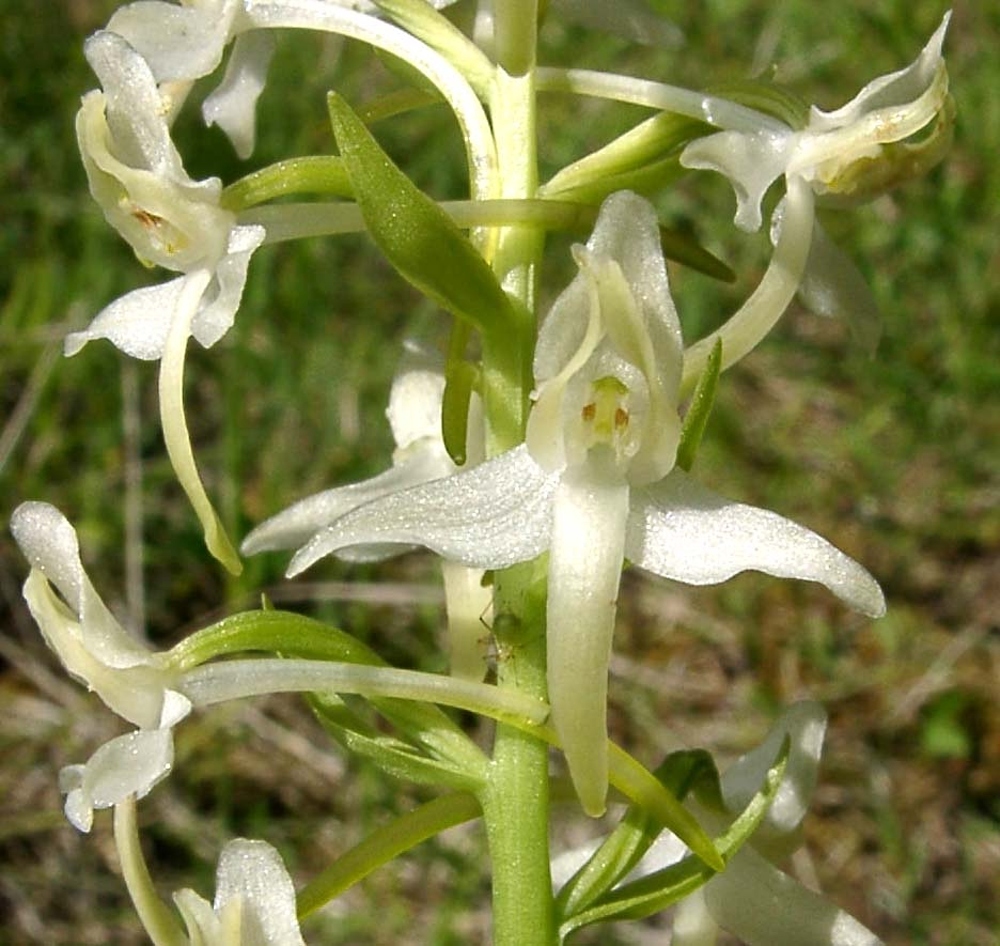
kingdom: Plantae
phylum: Tracheophyta
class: Liliopsida
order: Asparagales
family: Orchidaceae
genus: Platanthera
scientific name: Platanthera bifolia
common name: Lesser butterfly-orchid
